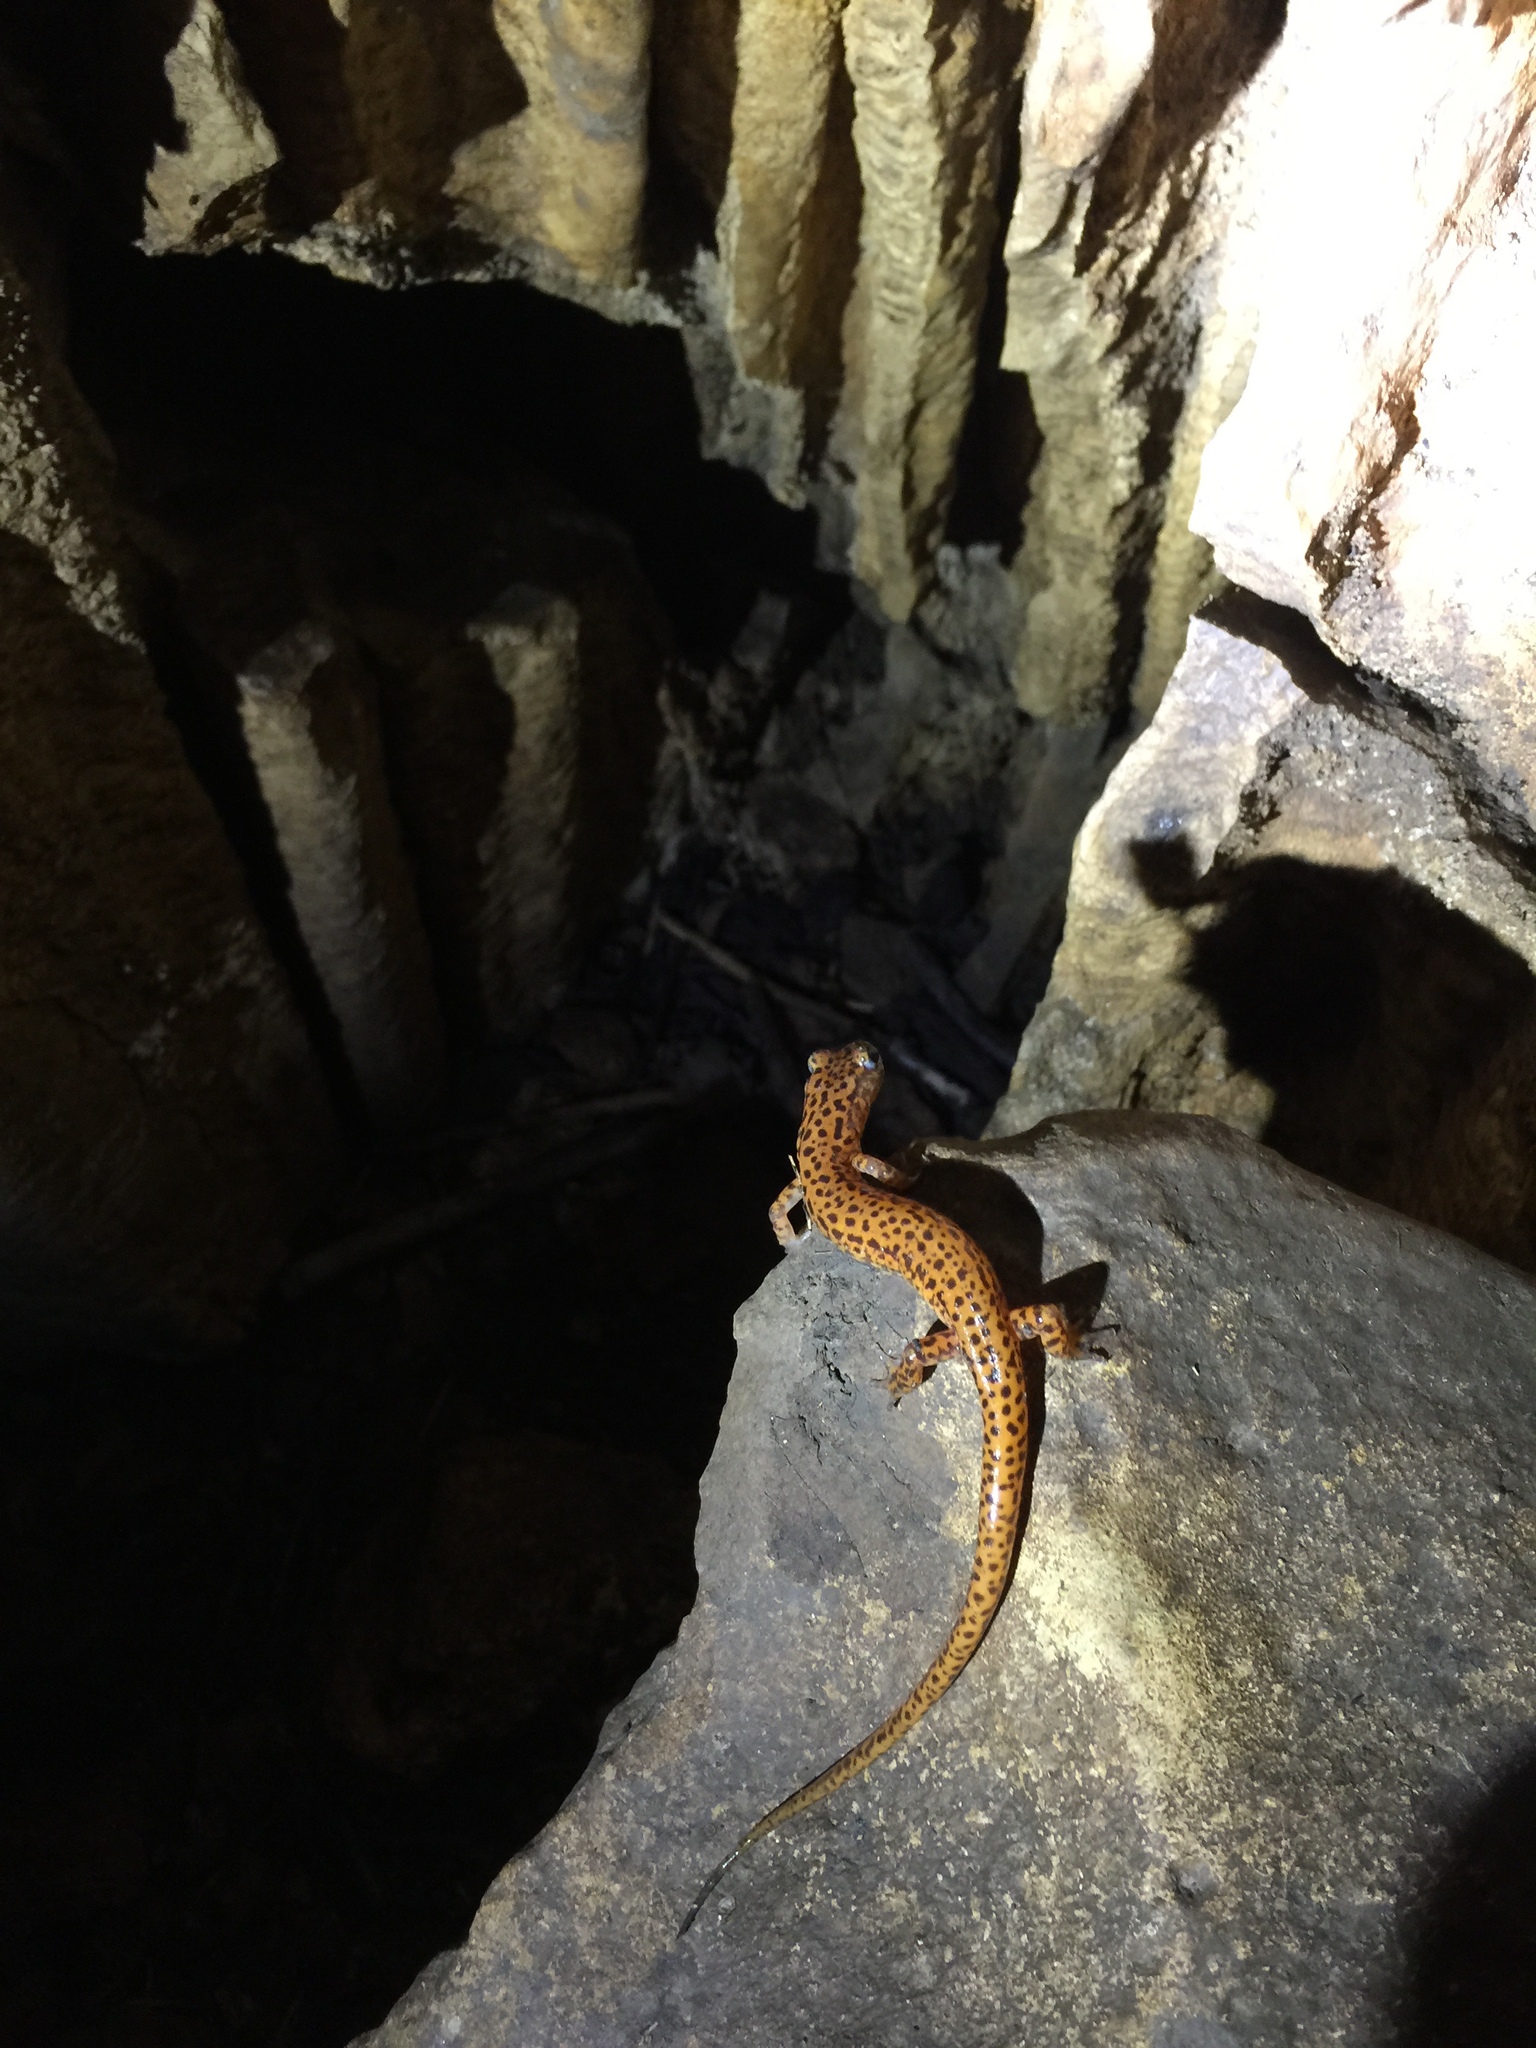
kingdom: Animalia
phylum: Chordata
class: Amphibia
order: Caudata
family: Plethodontidae
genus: Eurycea
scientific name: Eurycea lucifuga
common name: Cave salamander
